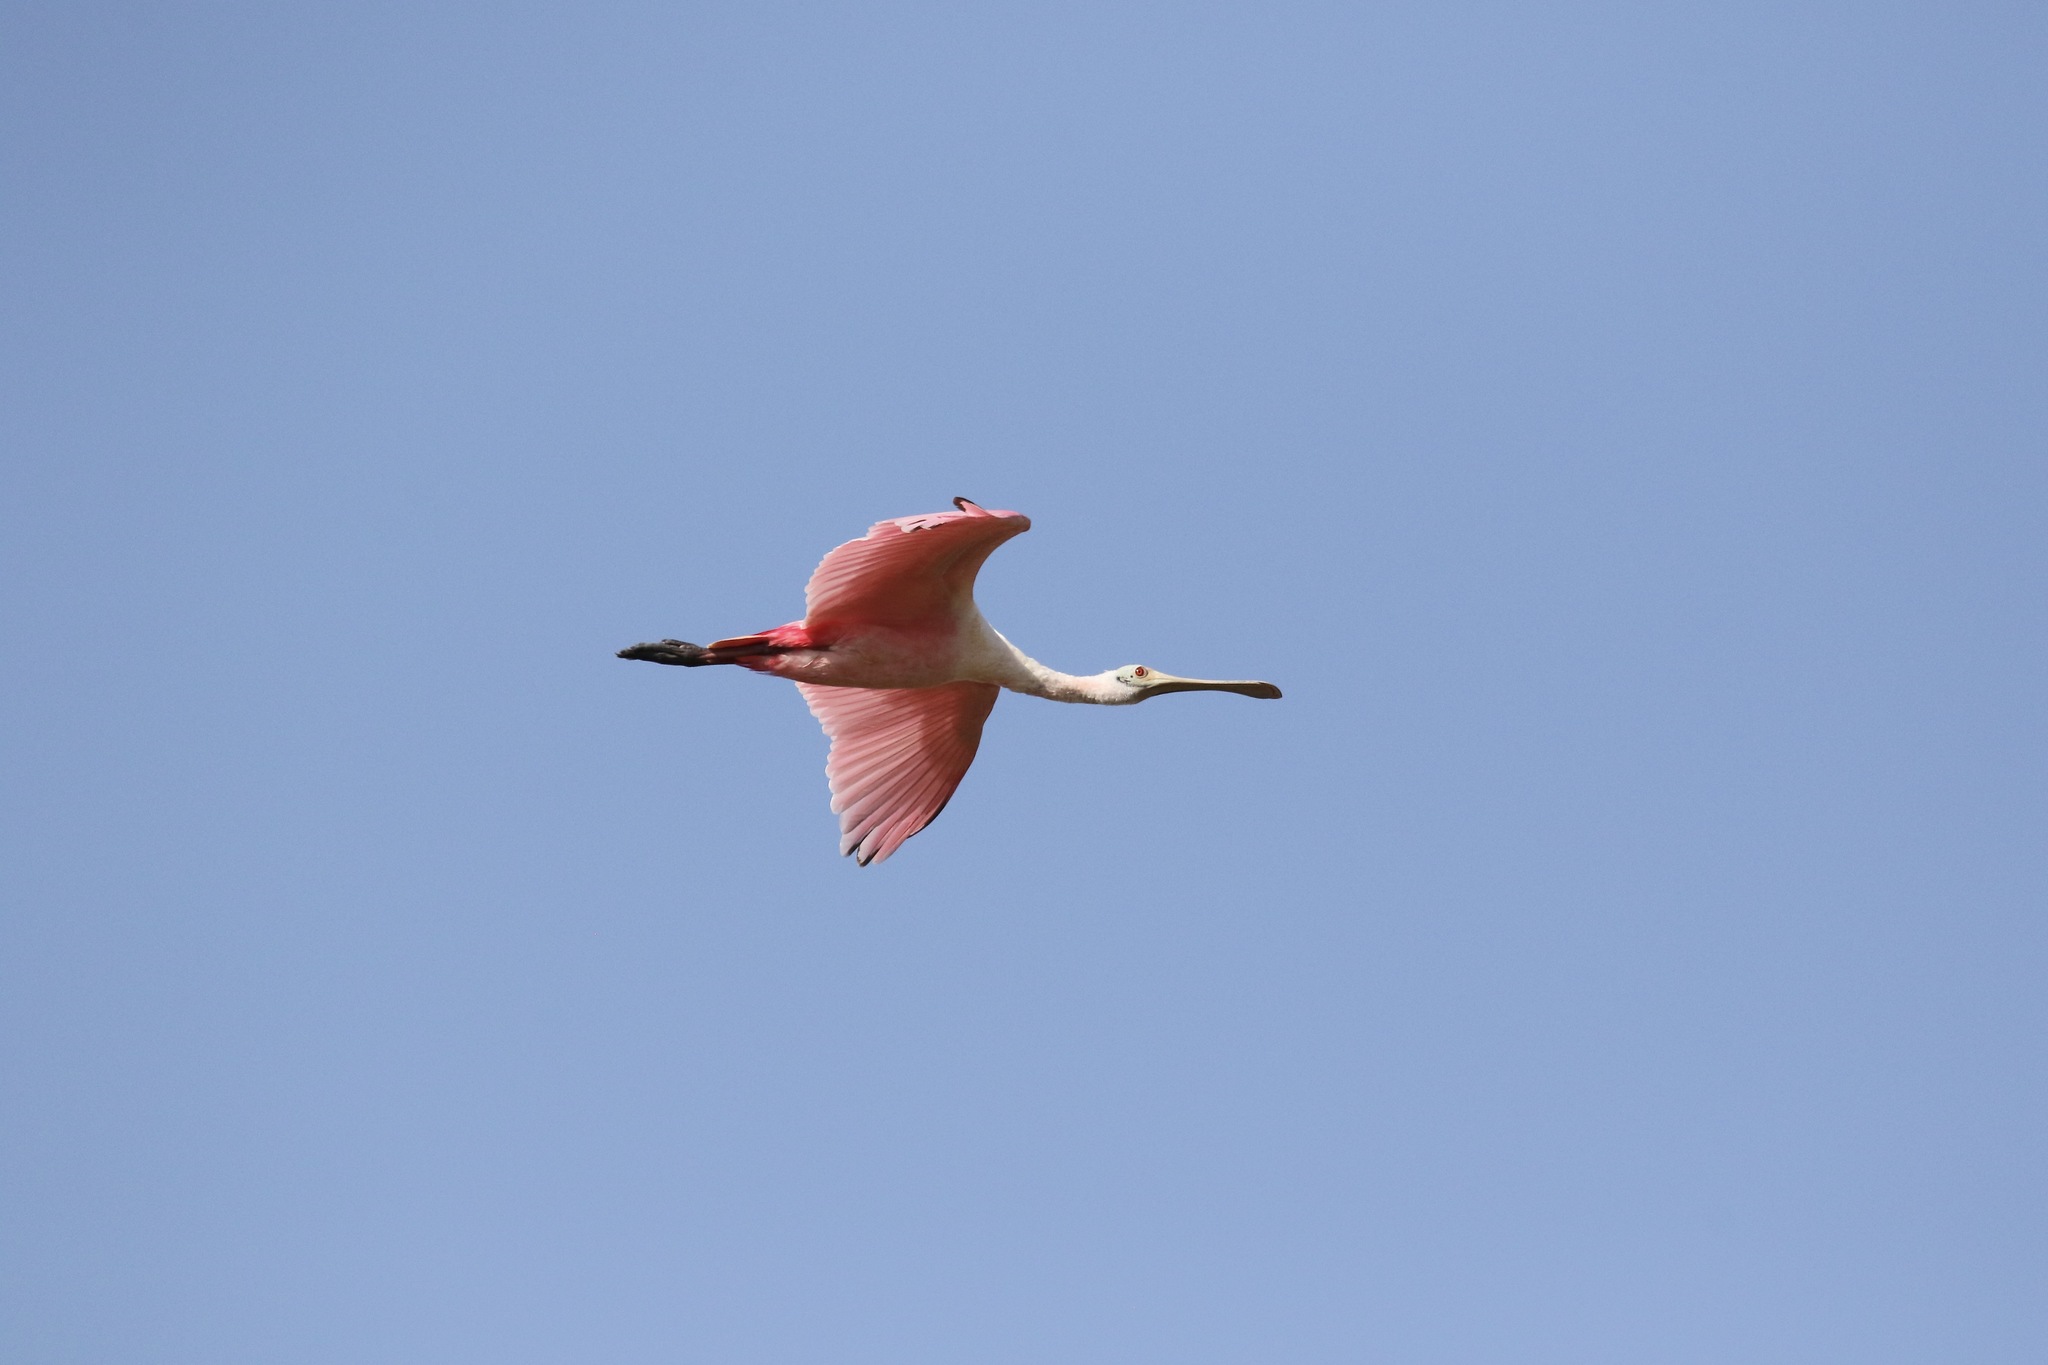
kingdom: Animalia
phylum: Chordata
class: Aves
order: Pelecaniformes
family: Threskiornithidae
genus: Platalea
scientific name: Platalea ajaja
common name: Roseate spoonbill
